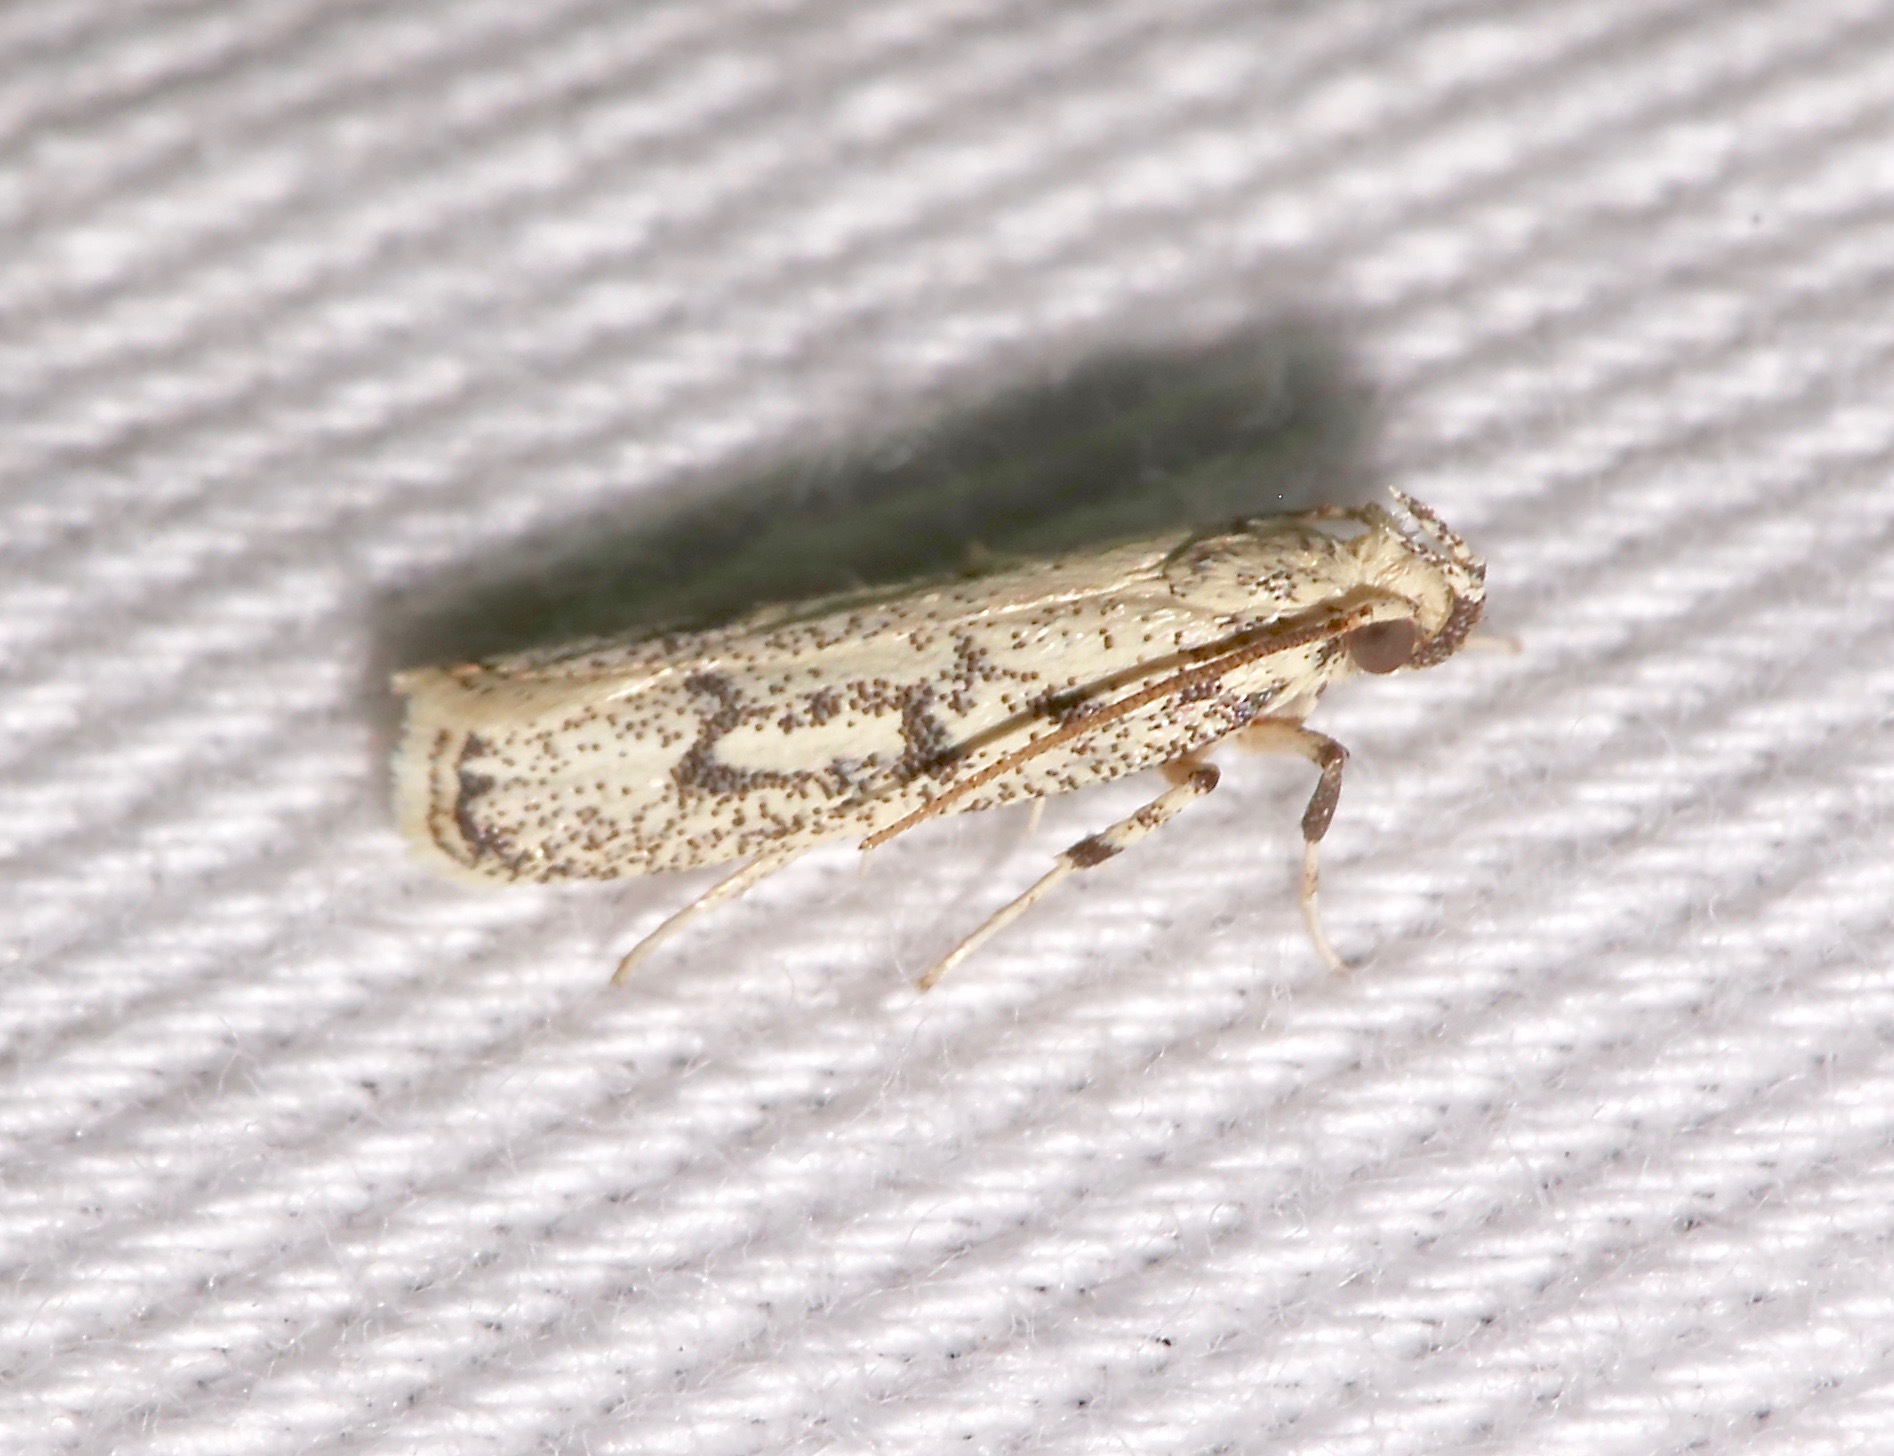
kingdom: Animalia
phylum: Arthropoda
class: Insecta
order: Lepidoptera
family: Autostichidae
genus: Glyphidocera
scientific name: Glyphidocera lactiflosella
